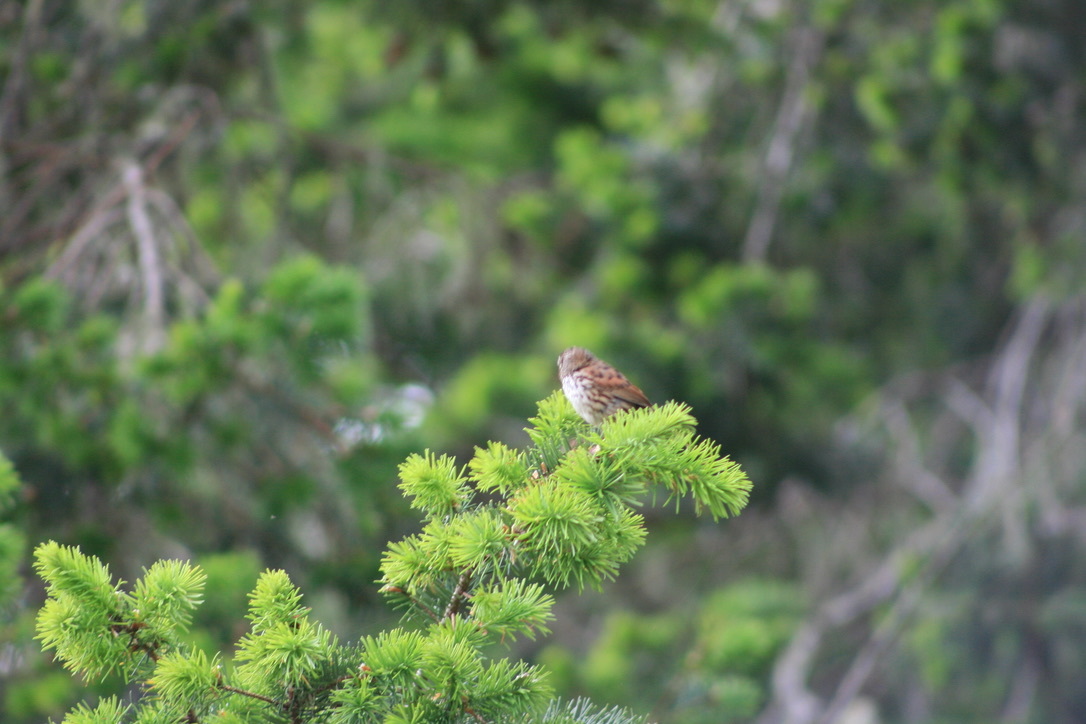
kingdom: Animalia
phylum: Chordata
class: Aves
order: Passeriformes
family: Passerellidae
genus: Melospiza
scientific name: Melospiza melodia
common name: Song sparrow
